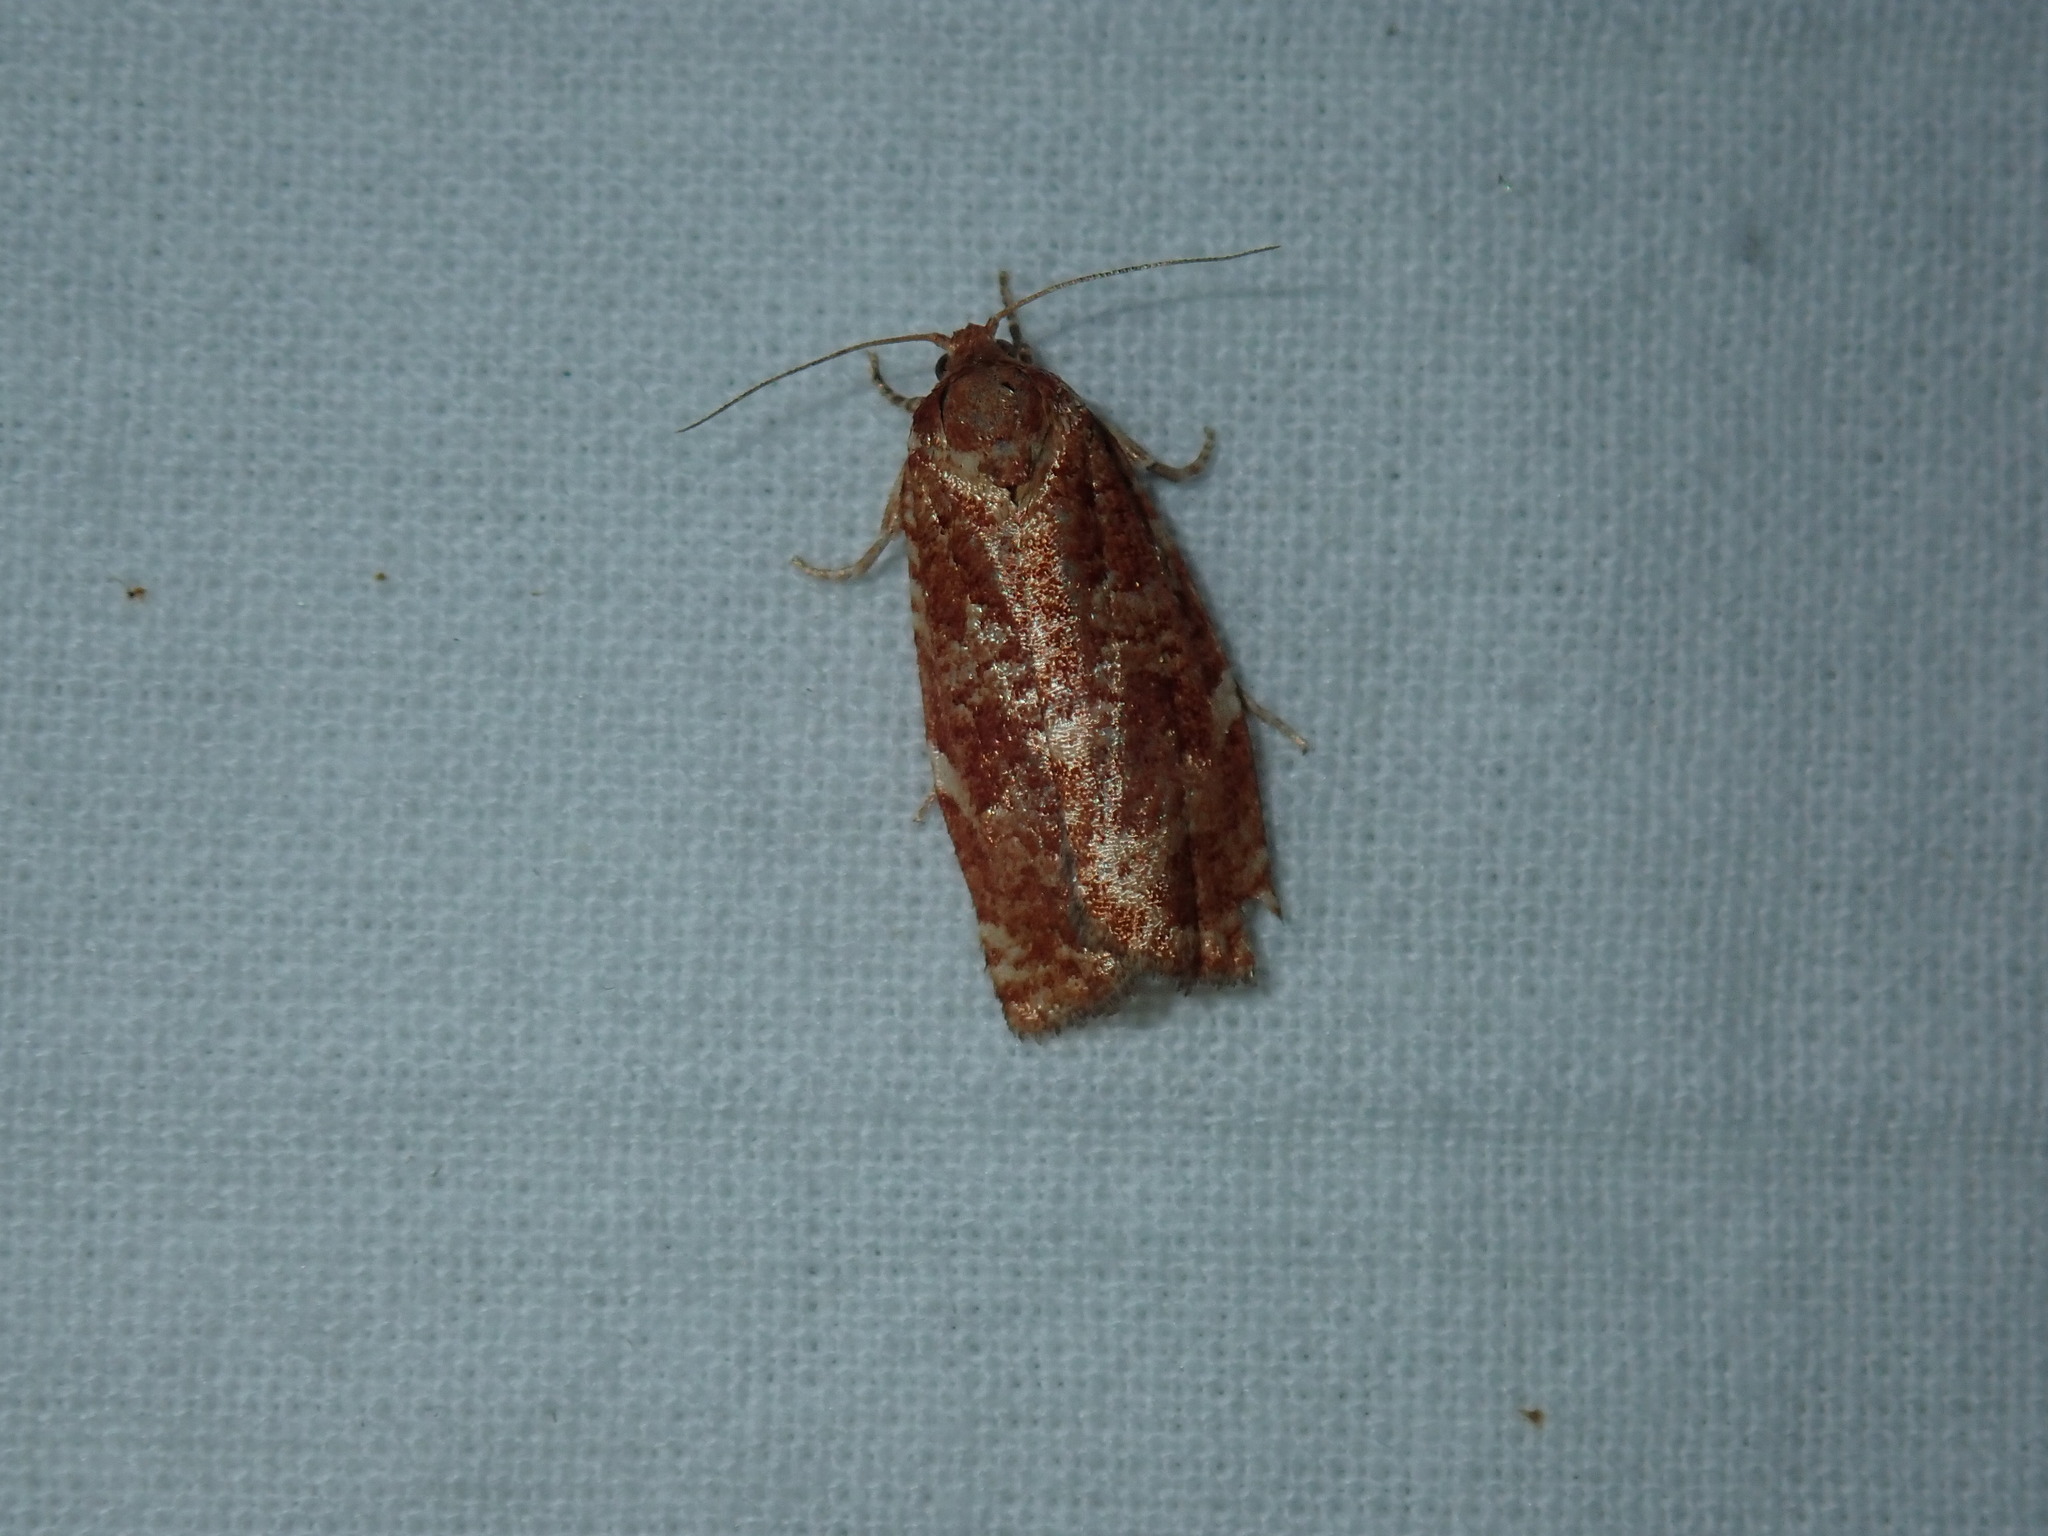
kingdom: Animalia
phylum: Arthropoda
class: Insecta
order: Lepidoptera
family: Tortricidae
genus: Choristoneura
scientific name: Choristoneura pinus
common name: Jack pine budworm
